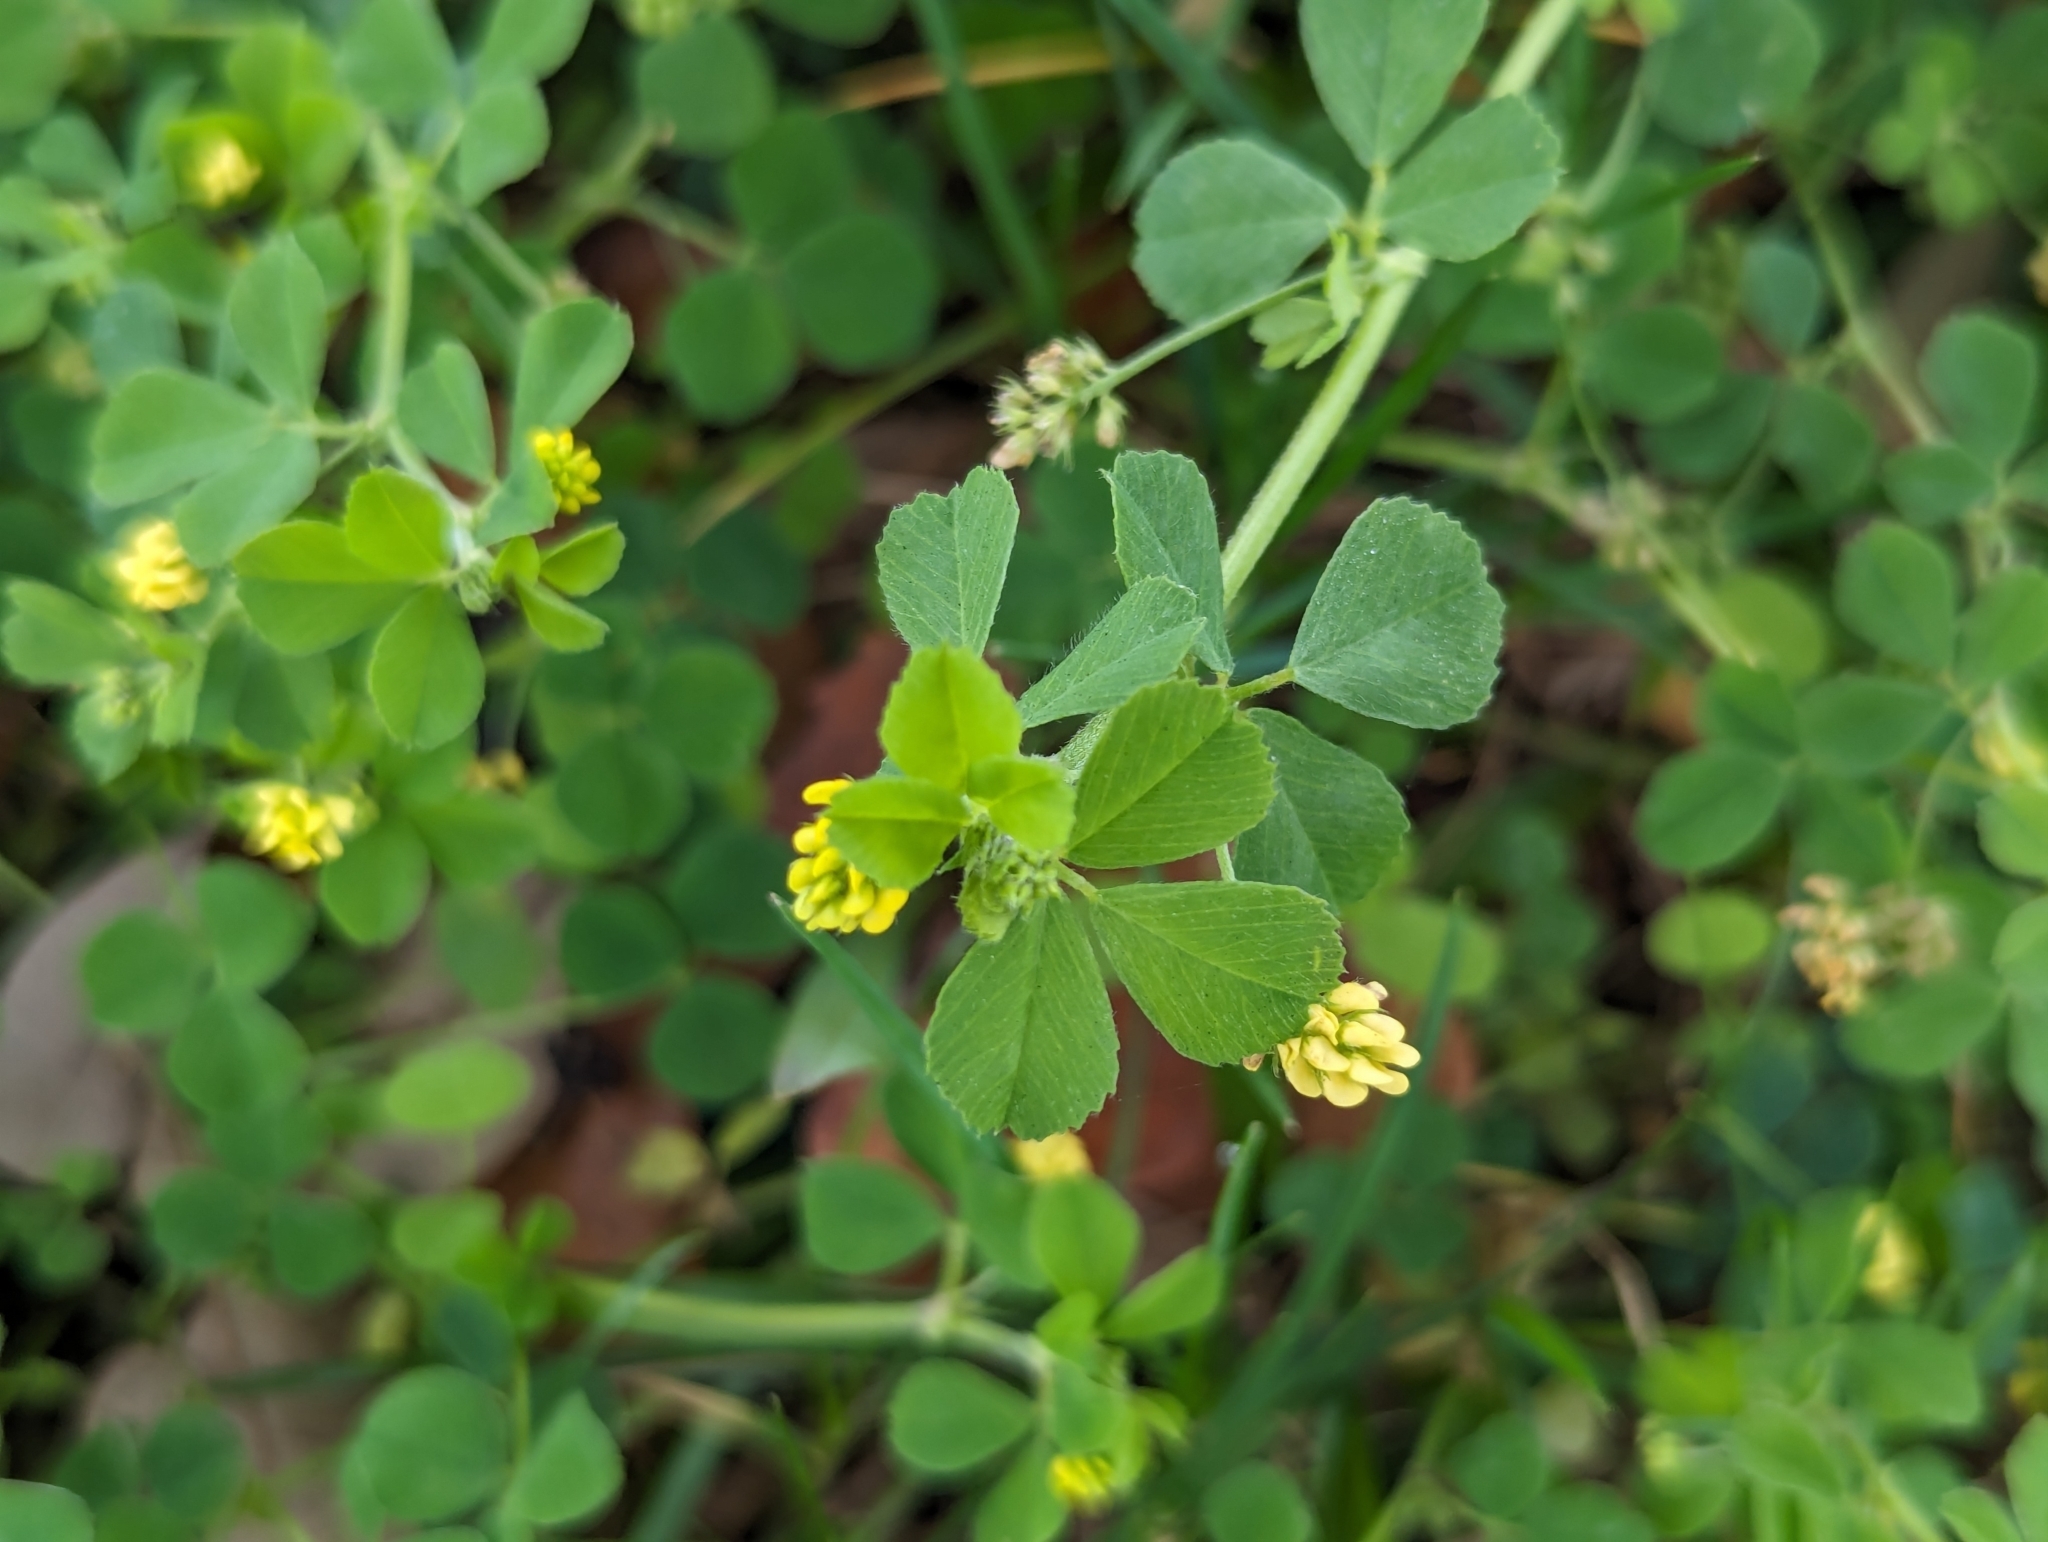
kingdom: Plantae
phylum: Tracheophyta
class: Magnoliopsida
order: Fabales
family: Fabaceae
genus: Medicago
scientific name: Medicago lupulina
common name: Black medick
